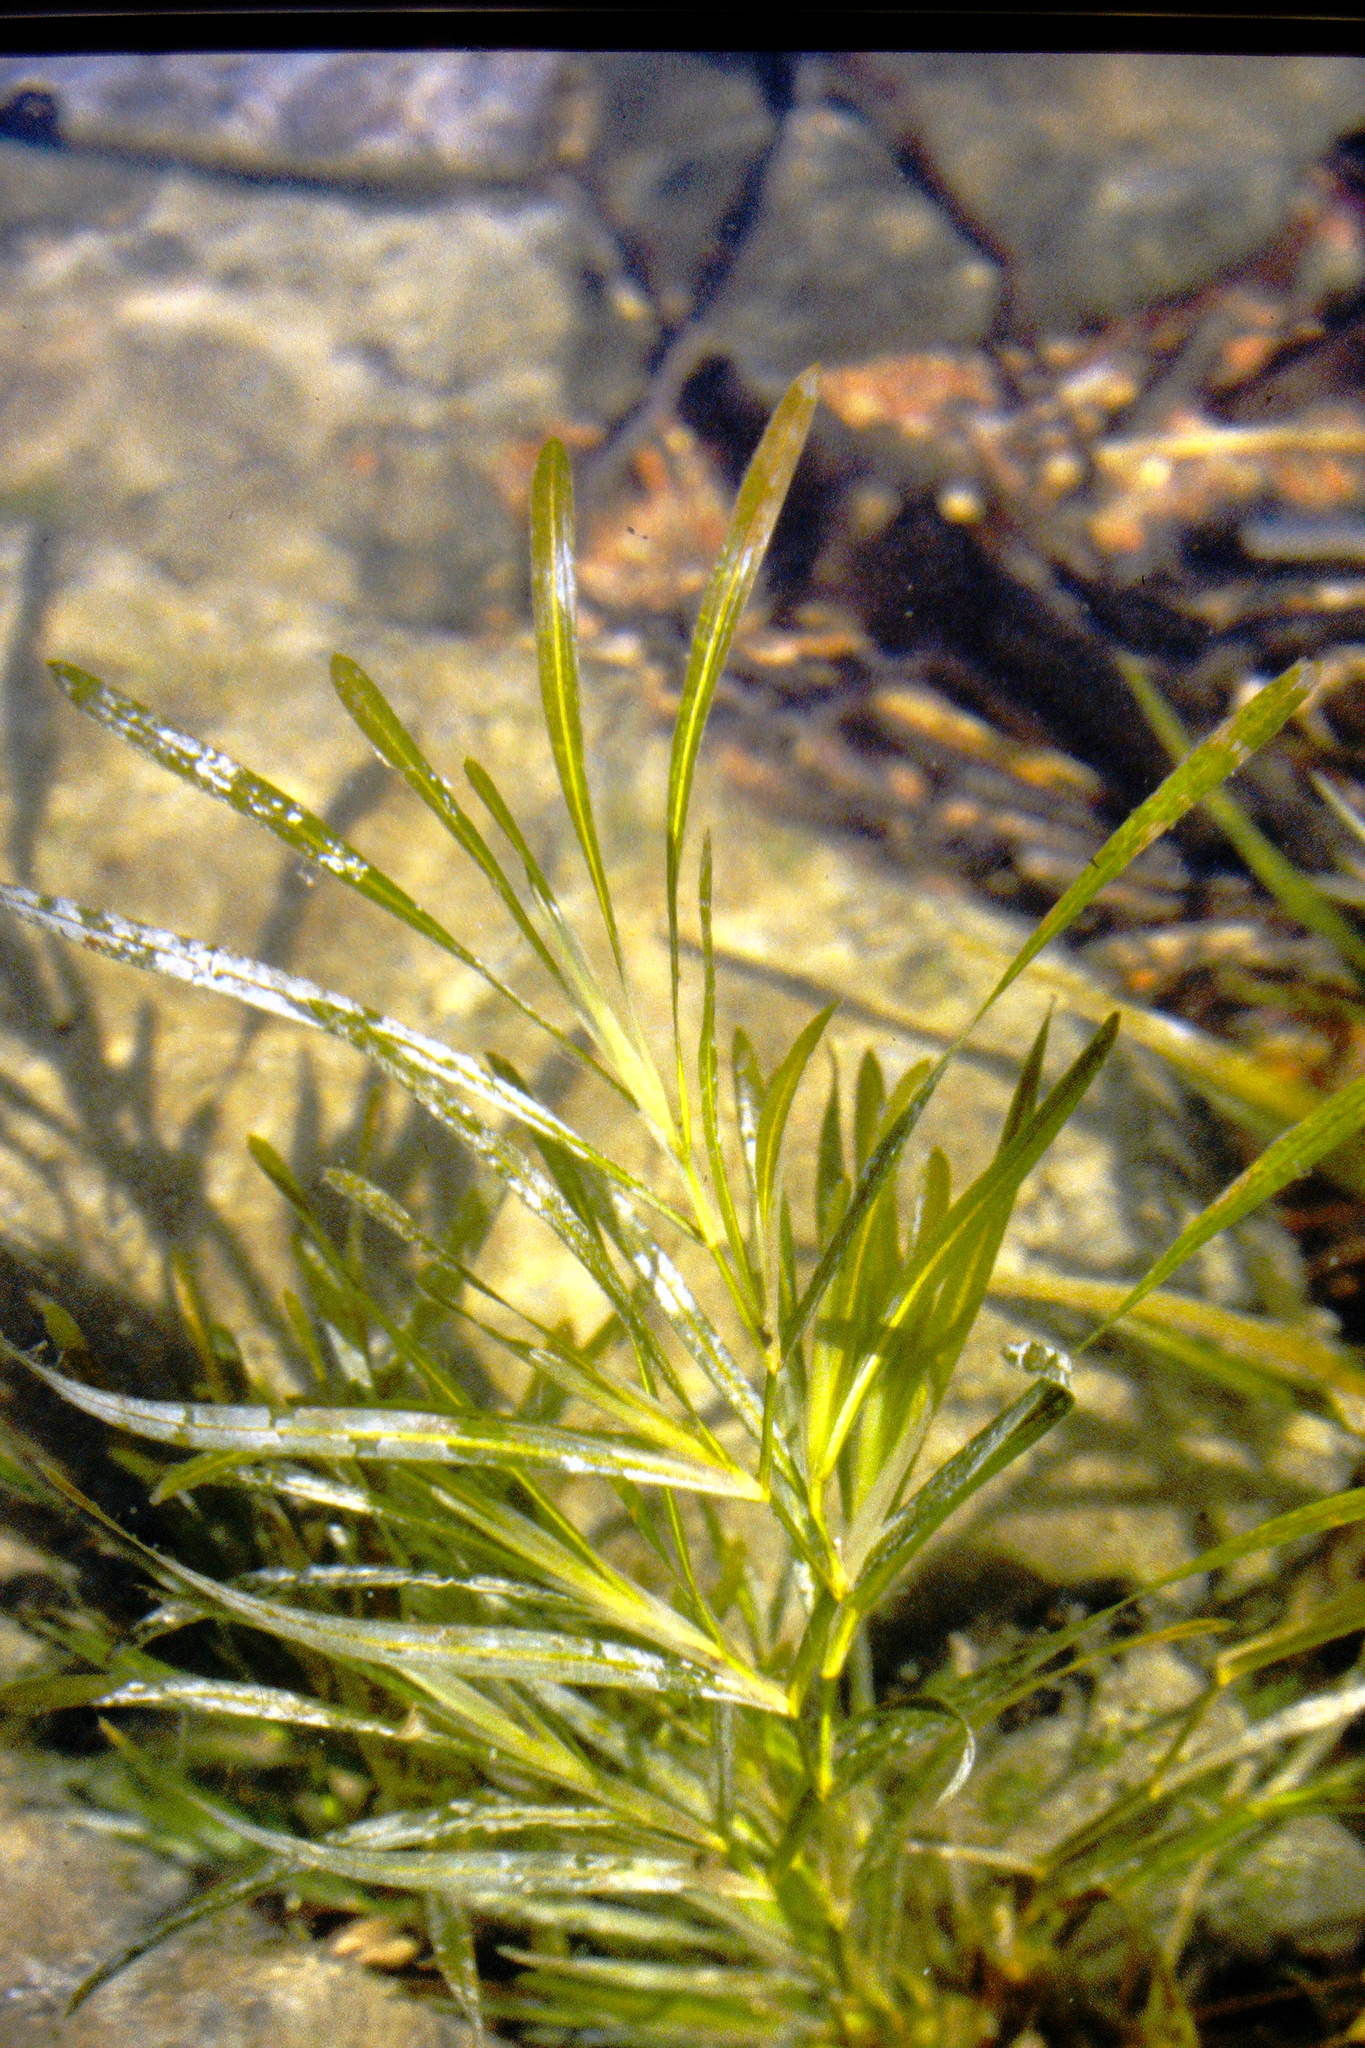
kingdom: Plantae
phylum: Tracheophyta
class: Liliopsida
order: Alismatales
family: Potamogetonaceae
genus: Potamogeton
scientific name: Potamogeton zosteriformis
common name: Eelgrass pondweed
